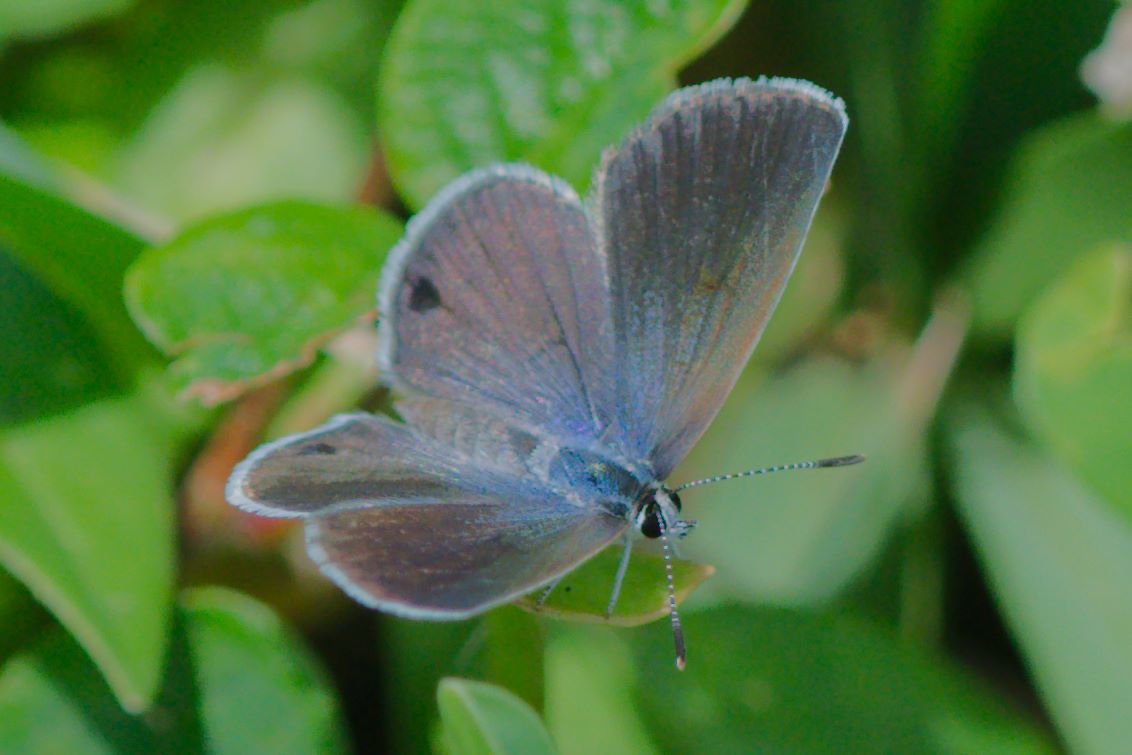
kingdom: Animalia
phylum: Arthropoda
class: Insecta
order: Lepidoptera
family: Lycaenidae
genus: Hemiargus
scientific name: Hemiargus ceraunus
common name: Ceraunus blue
